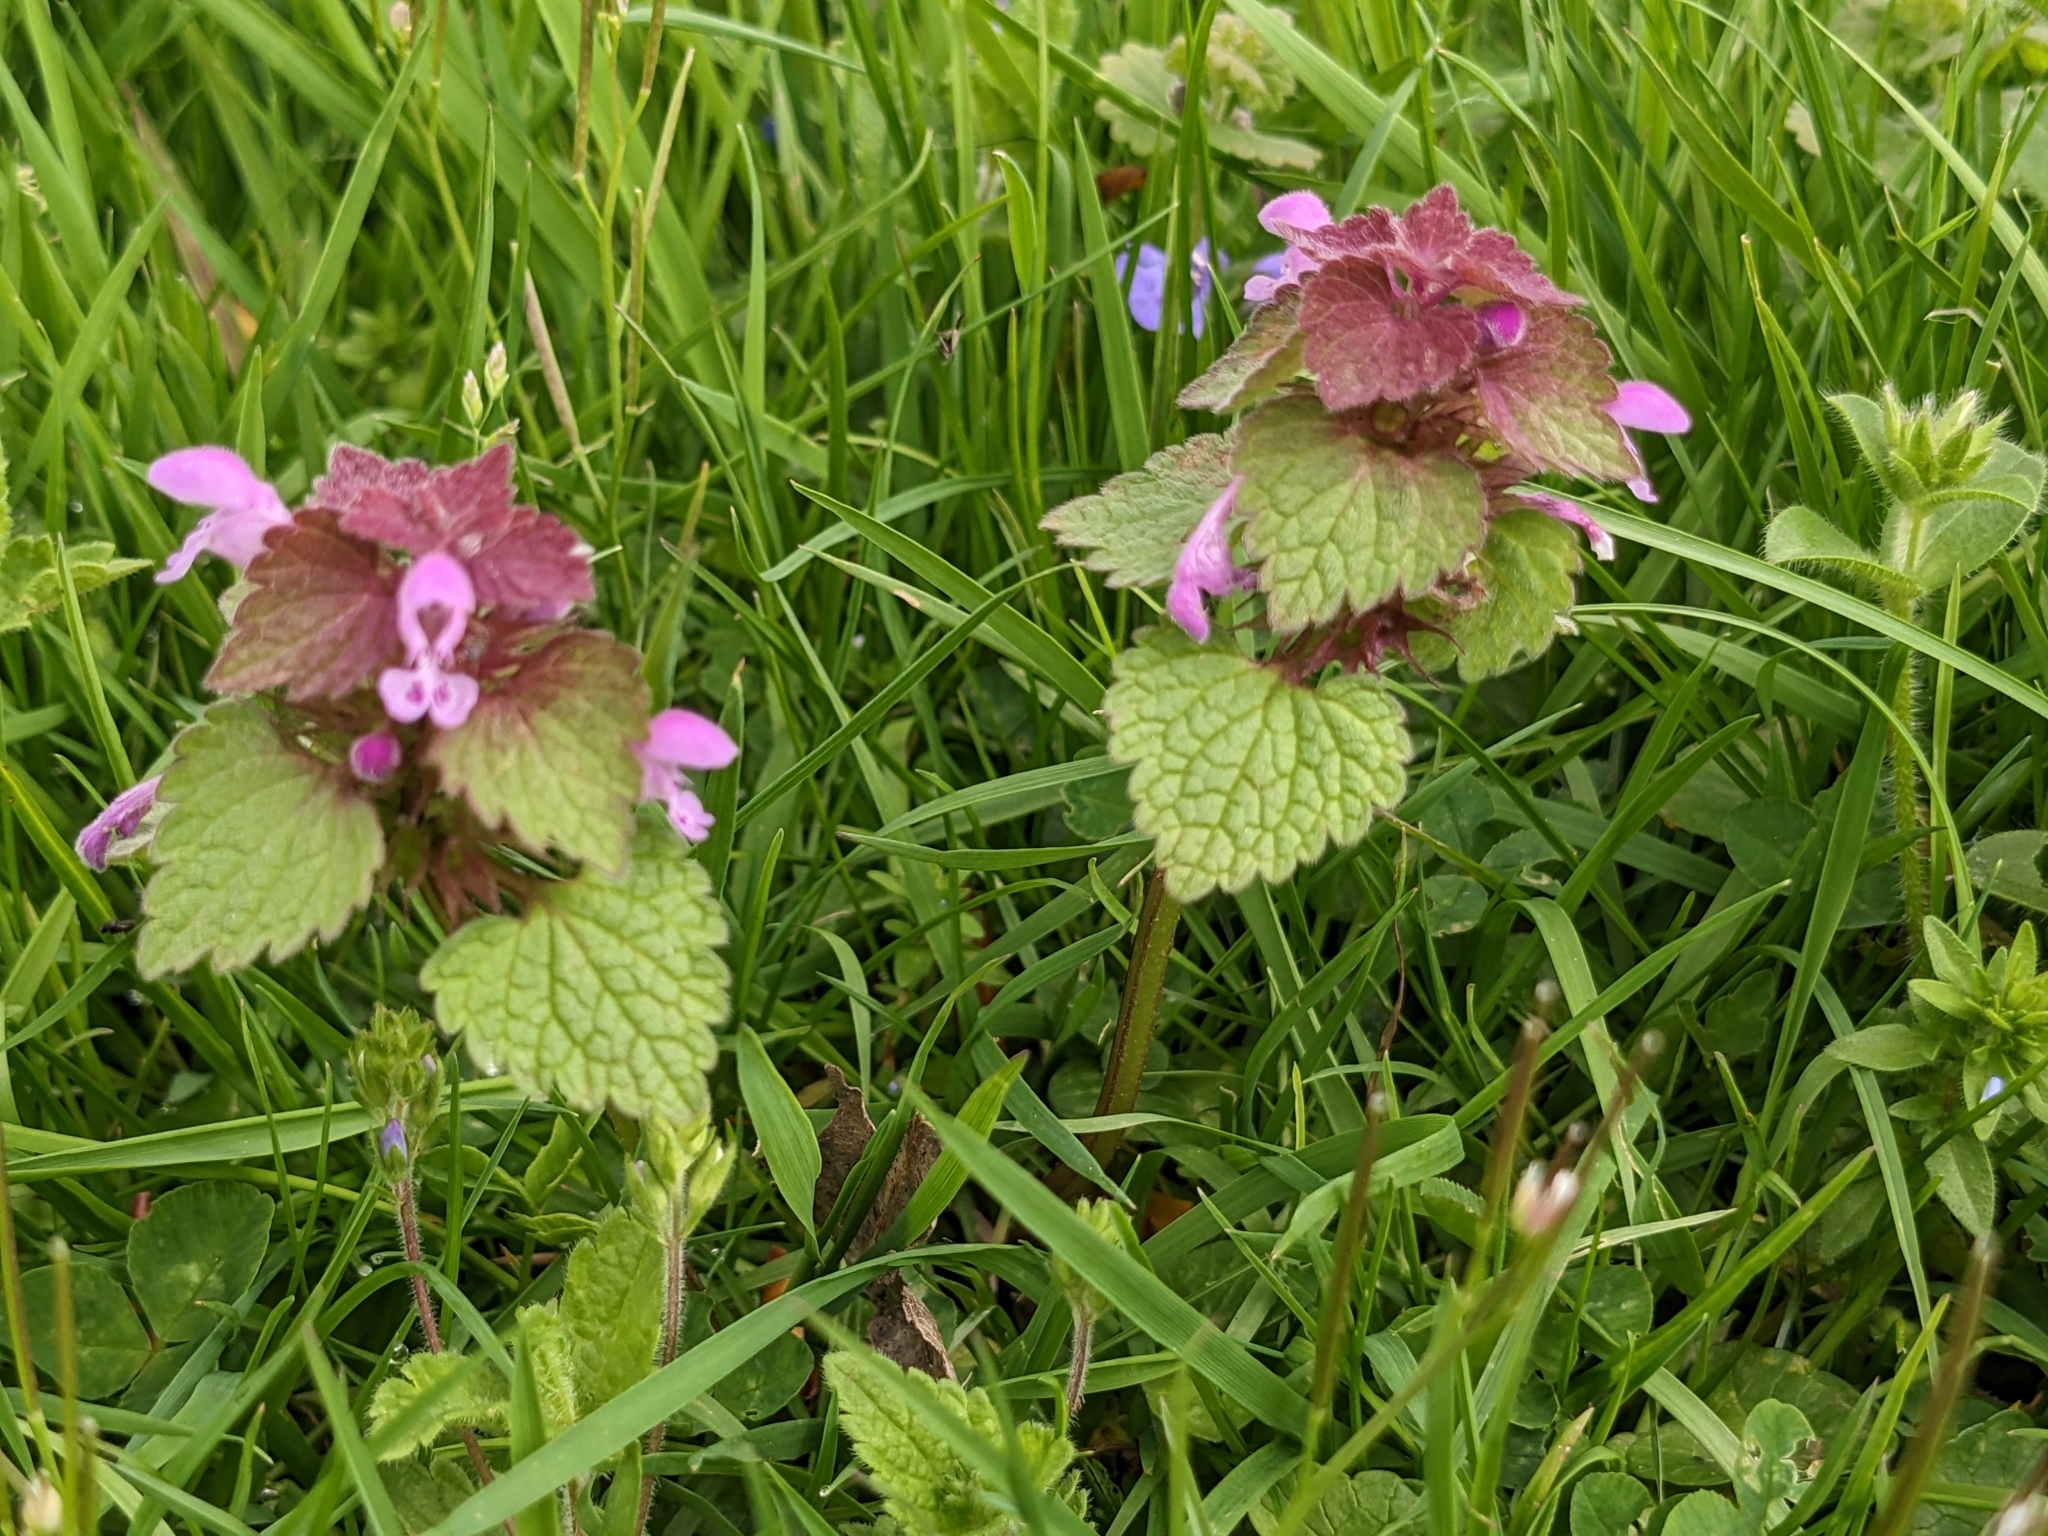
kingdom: Plantae
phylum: Tracheophyta
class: Magnoliopsida
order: Lamiales
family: Lamiaceae
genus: Lamium
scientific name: Lamium purpureum
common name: Red dead-nettle
